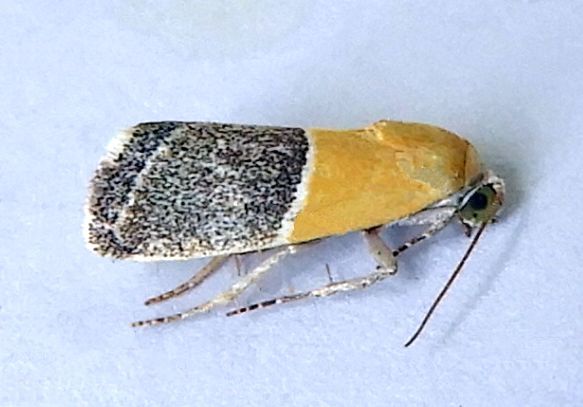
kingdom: Animalia
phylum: Arthropoda
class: Insecta
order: Lepidoptera
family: Noctuidae
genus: Acontia
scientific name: Acontia clausula
